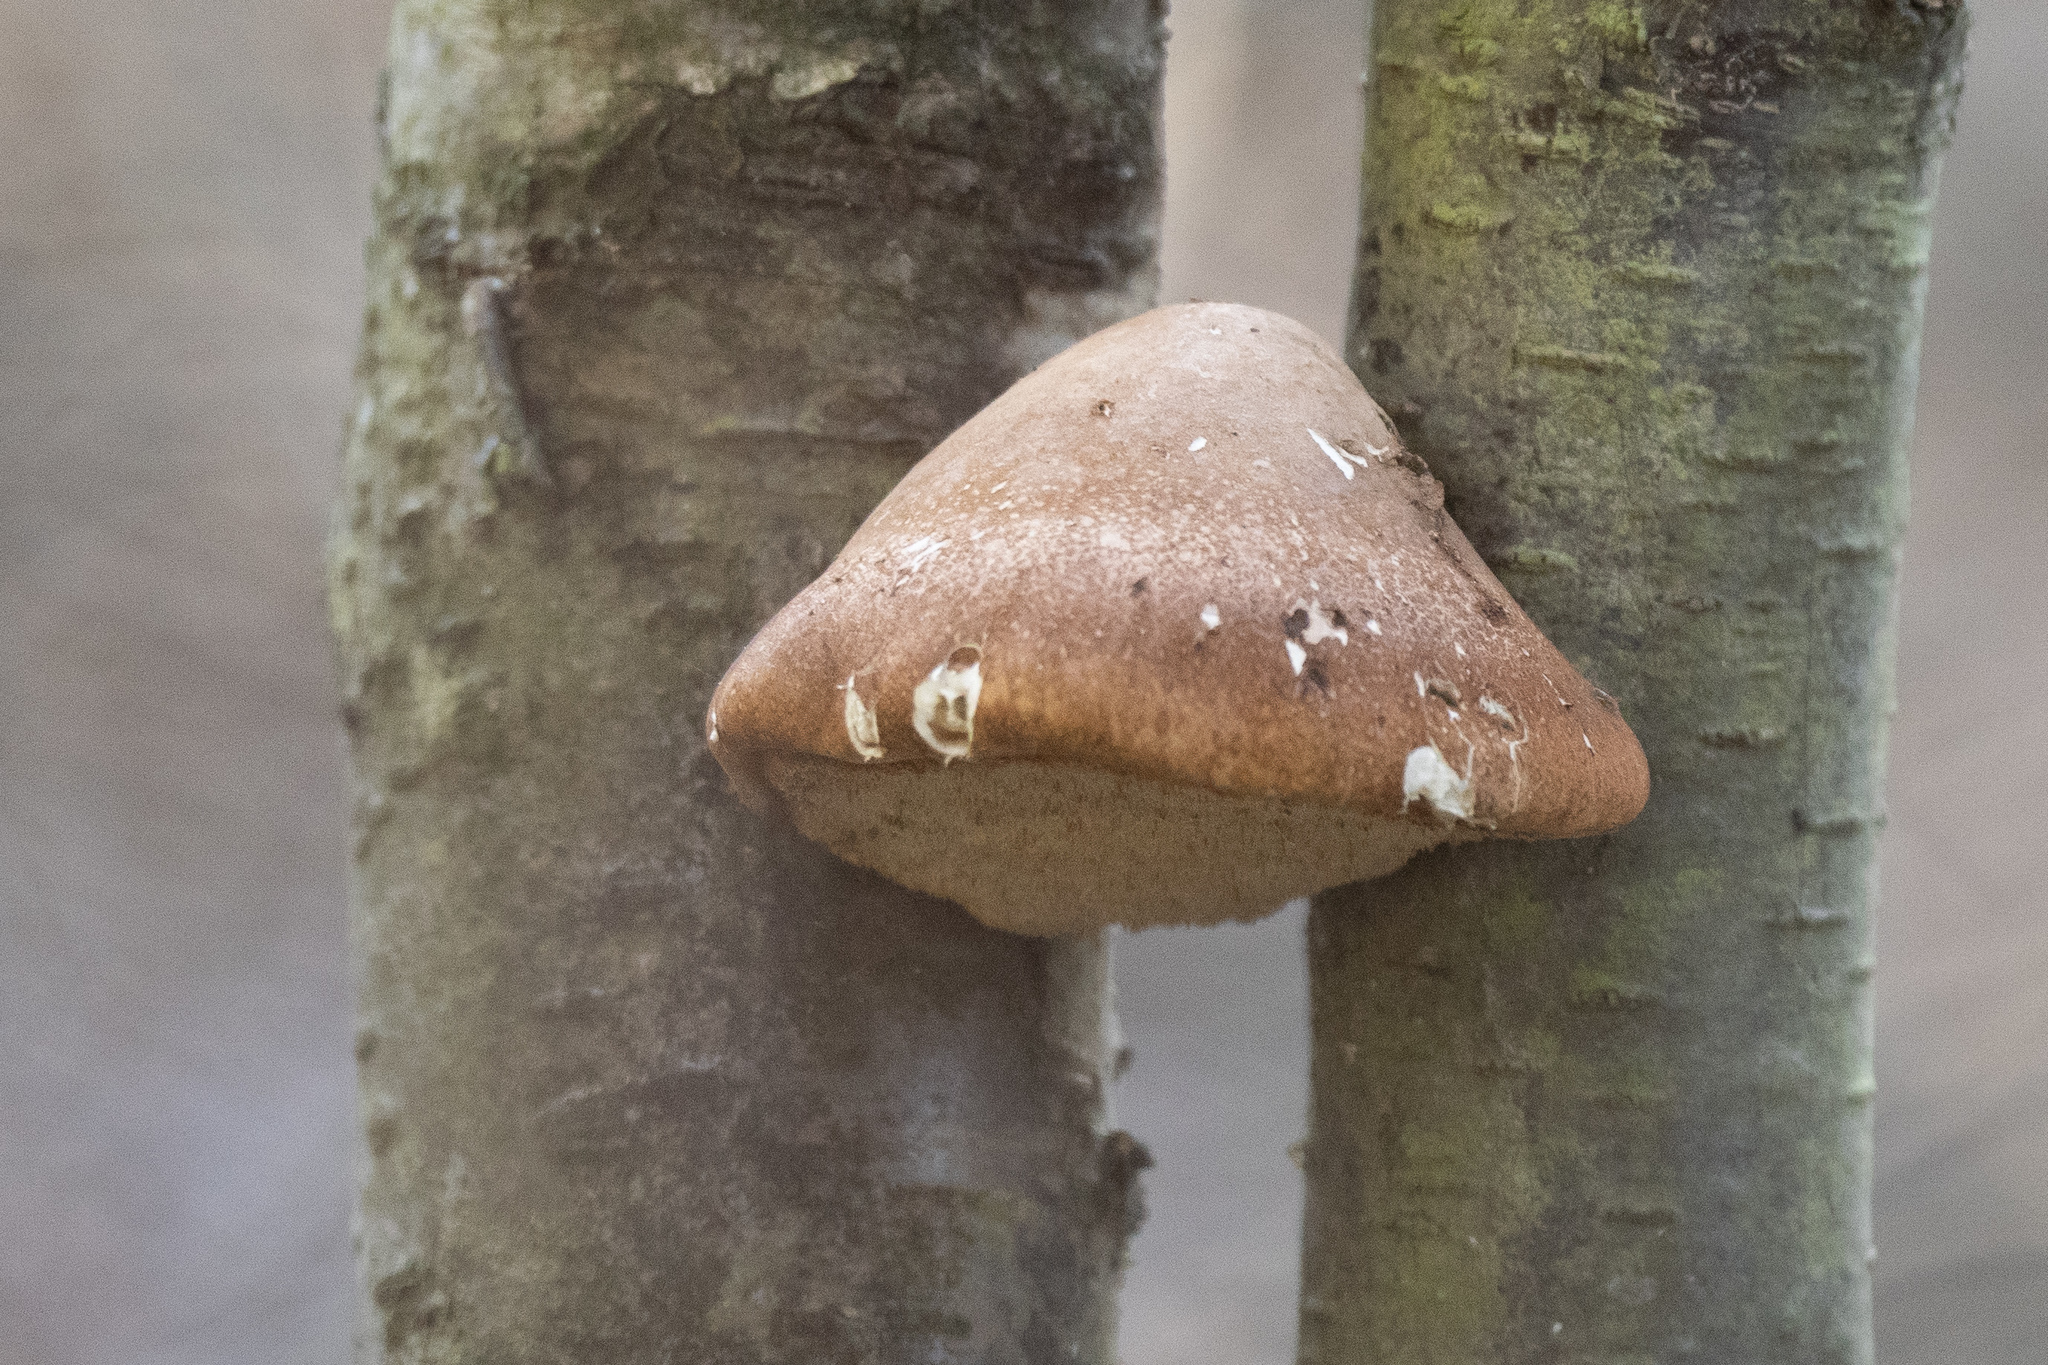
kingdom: Fungi
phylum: Basidiomycota
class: Agaricomycetes
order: Polyporales
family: Fomitopsidaceae
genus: Fomitopsis
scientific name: Fomitopsis betulina
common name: Birch polypore
